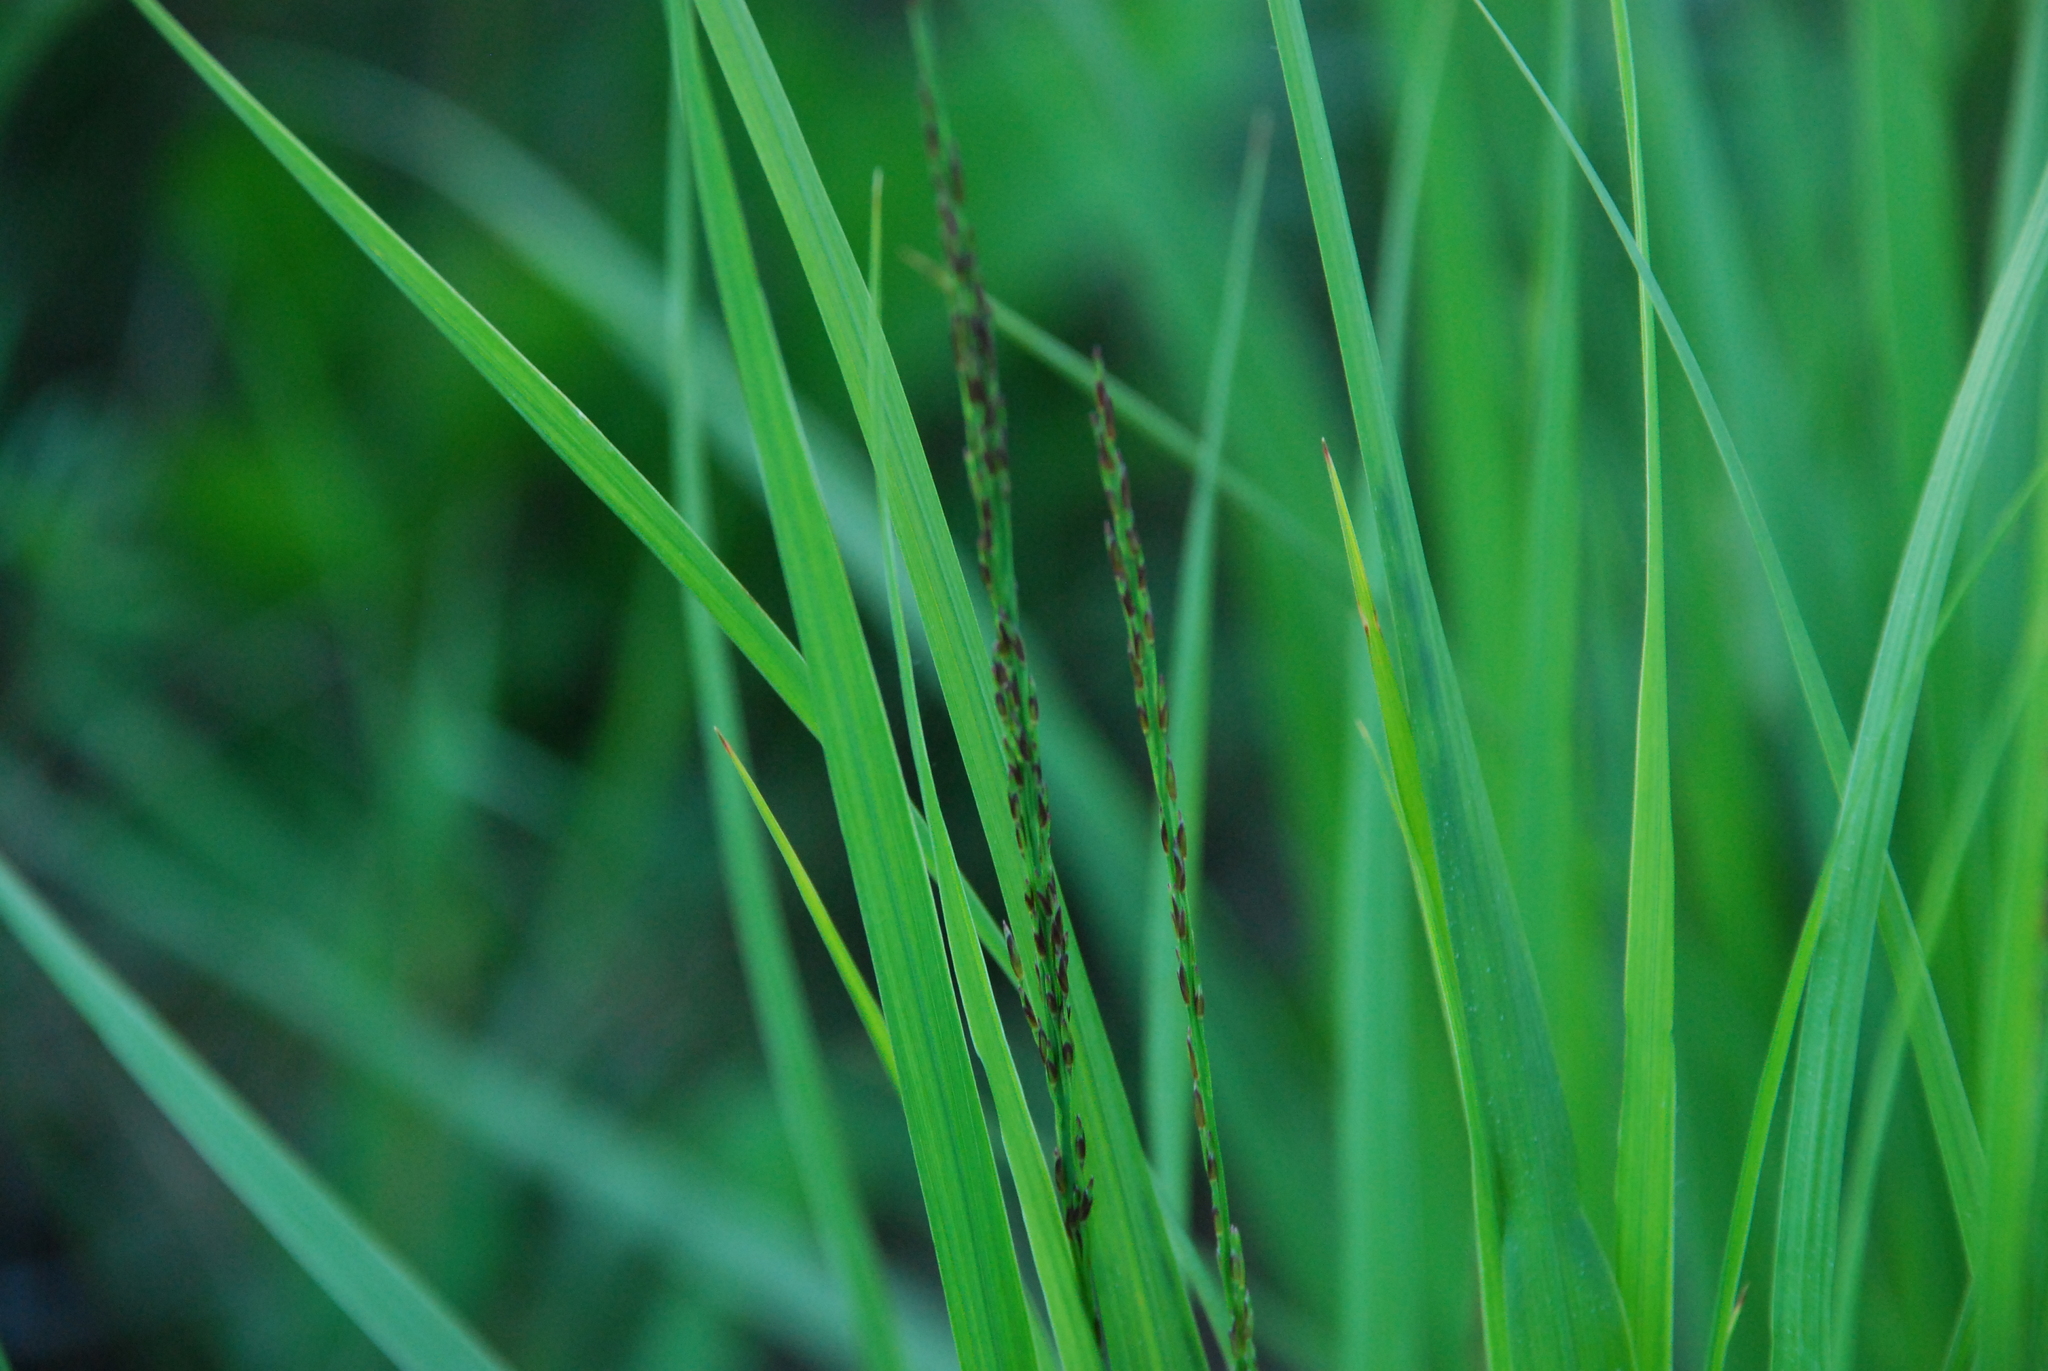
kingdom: Plantae
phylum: Tracheophyta
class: Liliopsida
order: Poales
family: Poaceae
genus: Molinia
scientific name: Molinia caerulea
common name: Purple moor-grass
